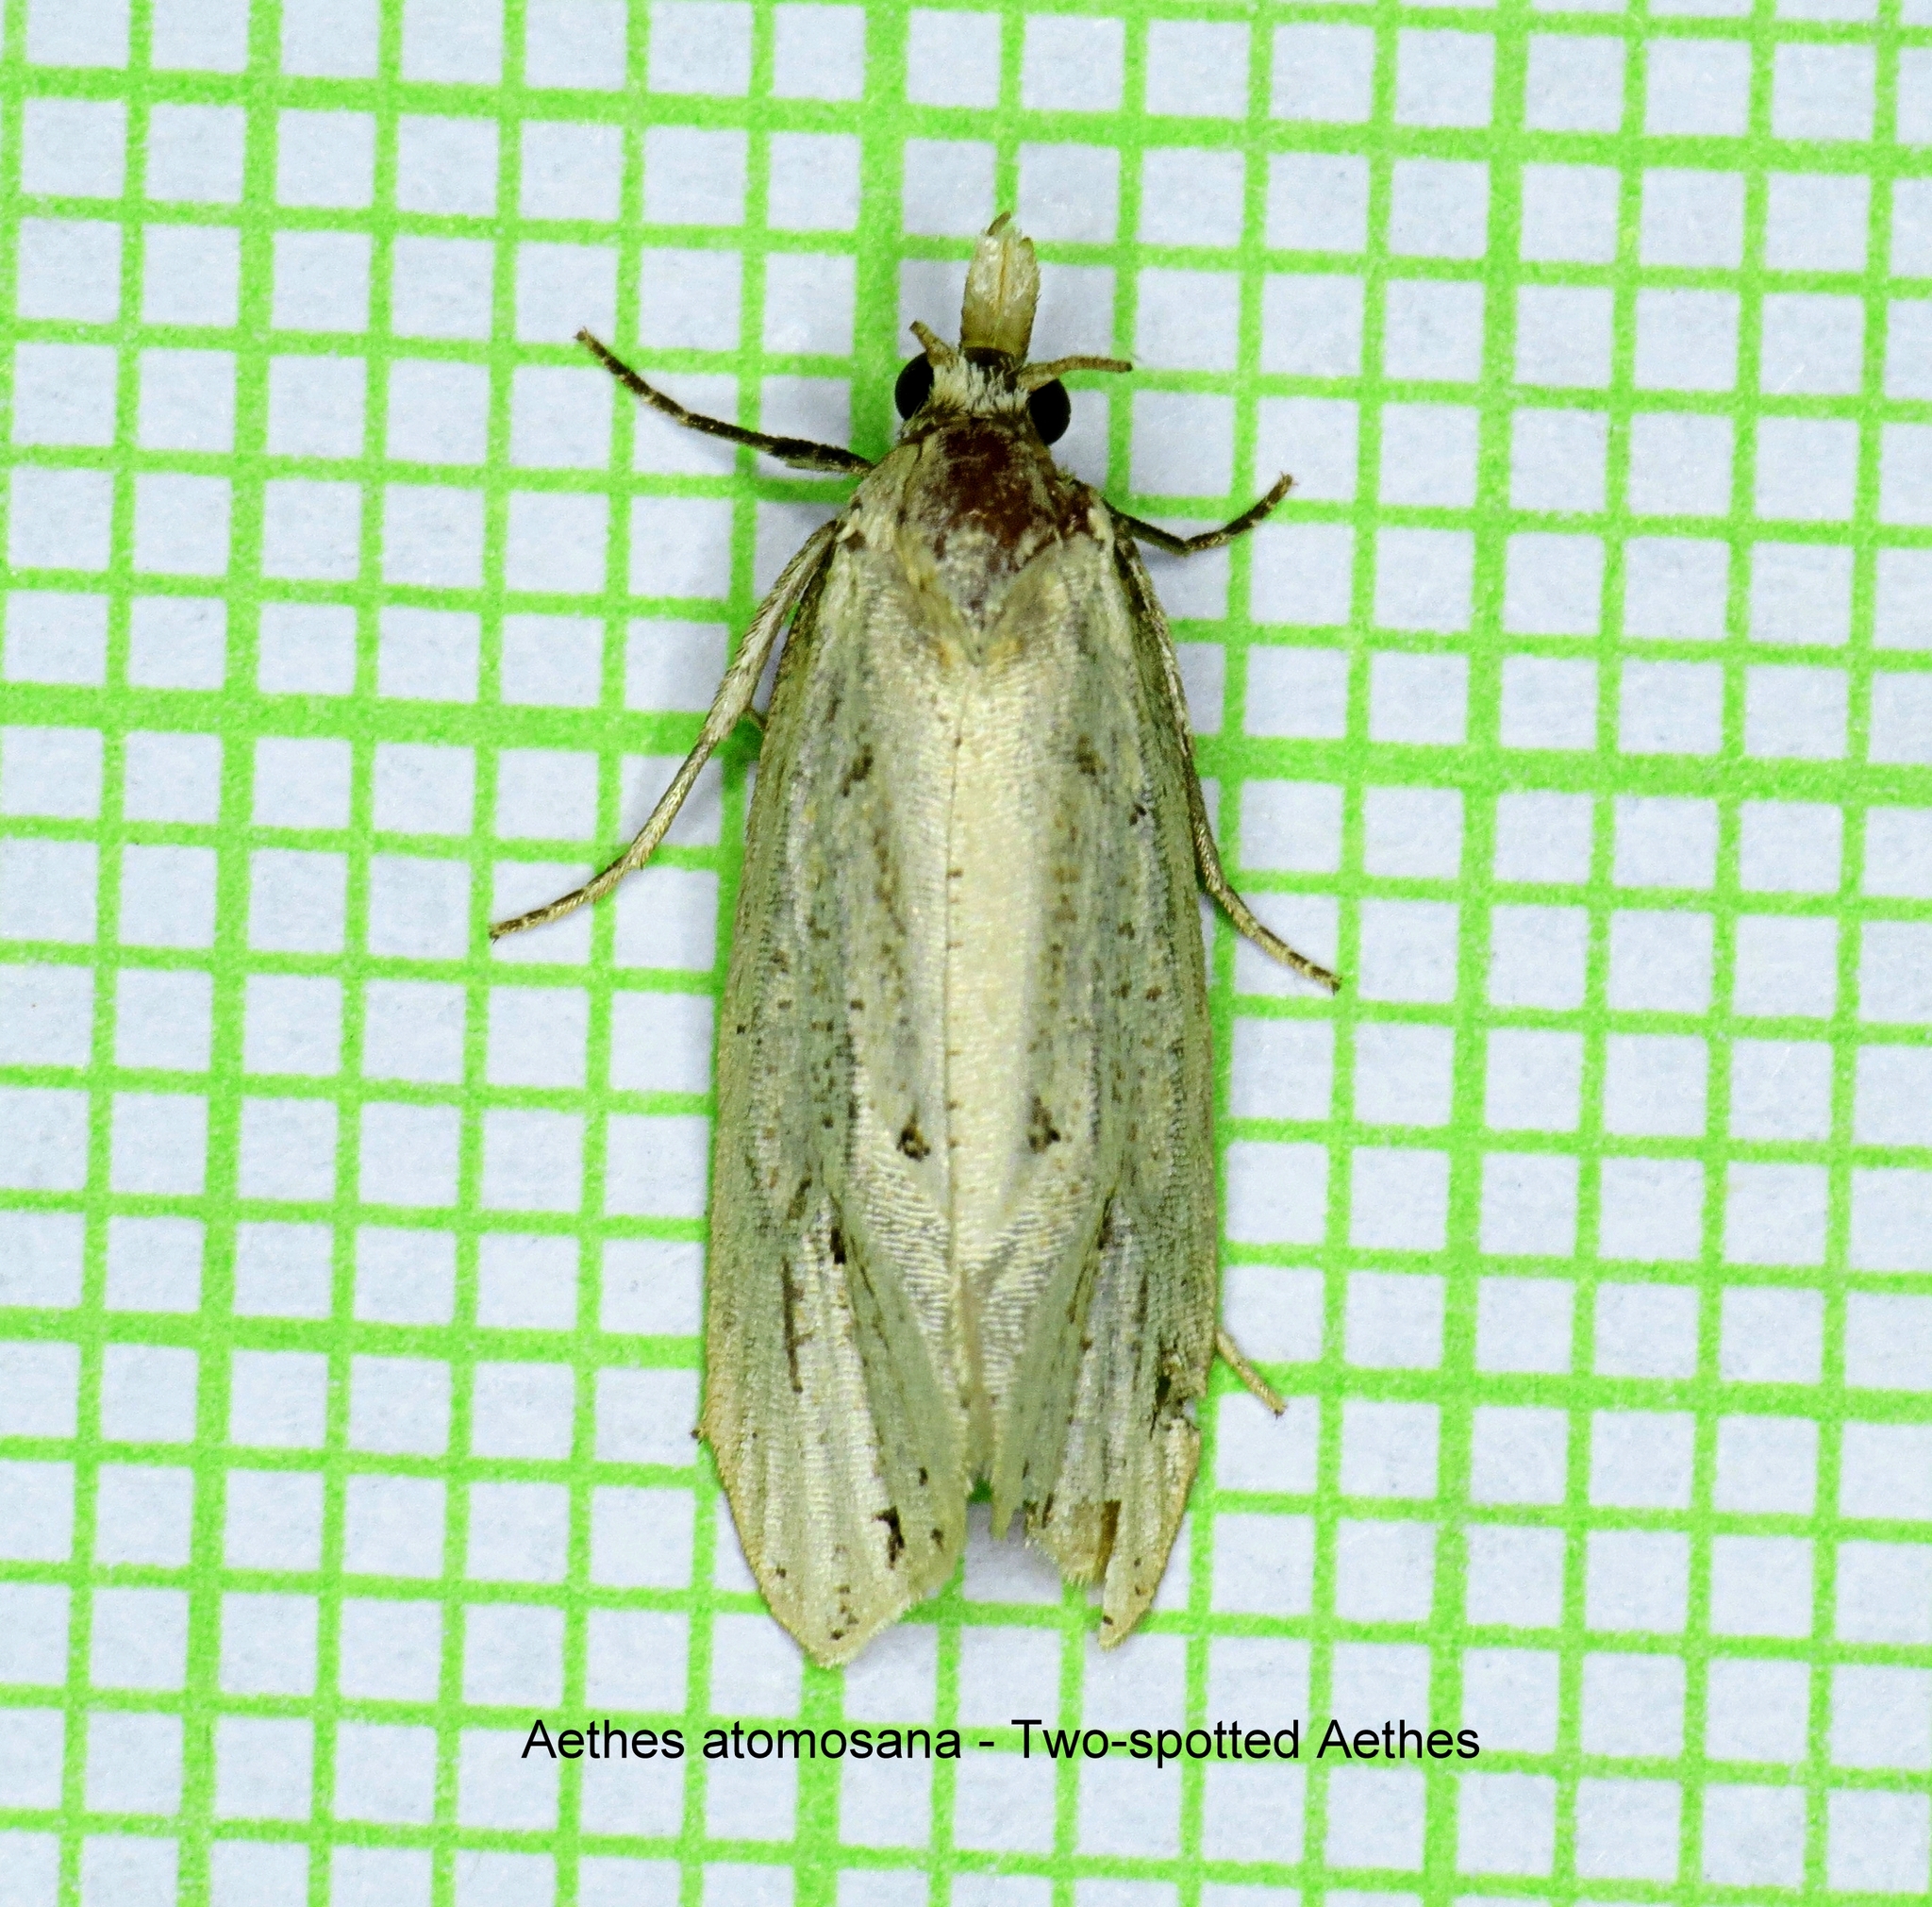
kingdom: Animalia
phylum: Arthropoda
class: Insecta
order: Lepidoptera
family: Tortricidae
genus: Aethes
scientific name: Aethes atomosana
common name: Two-spotted aethes
